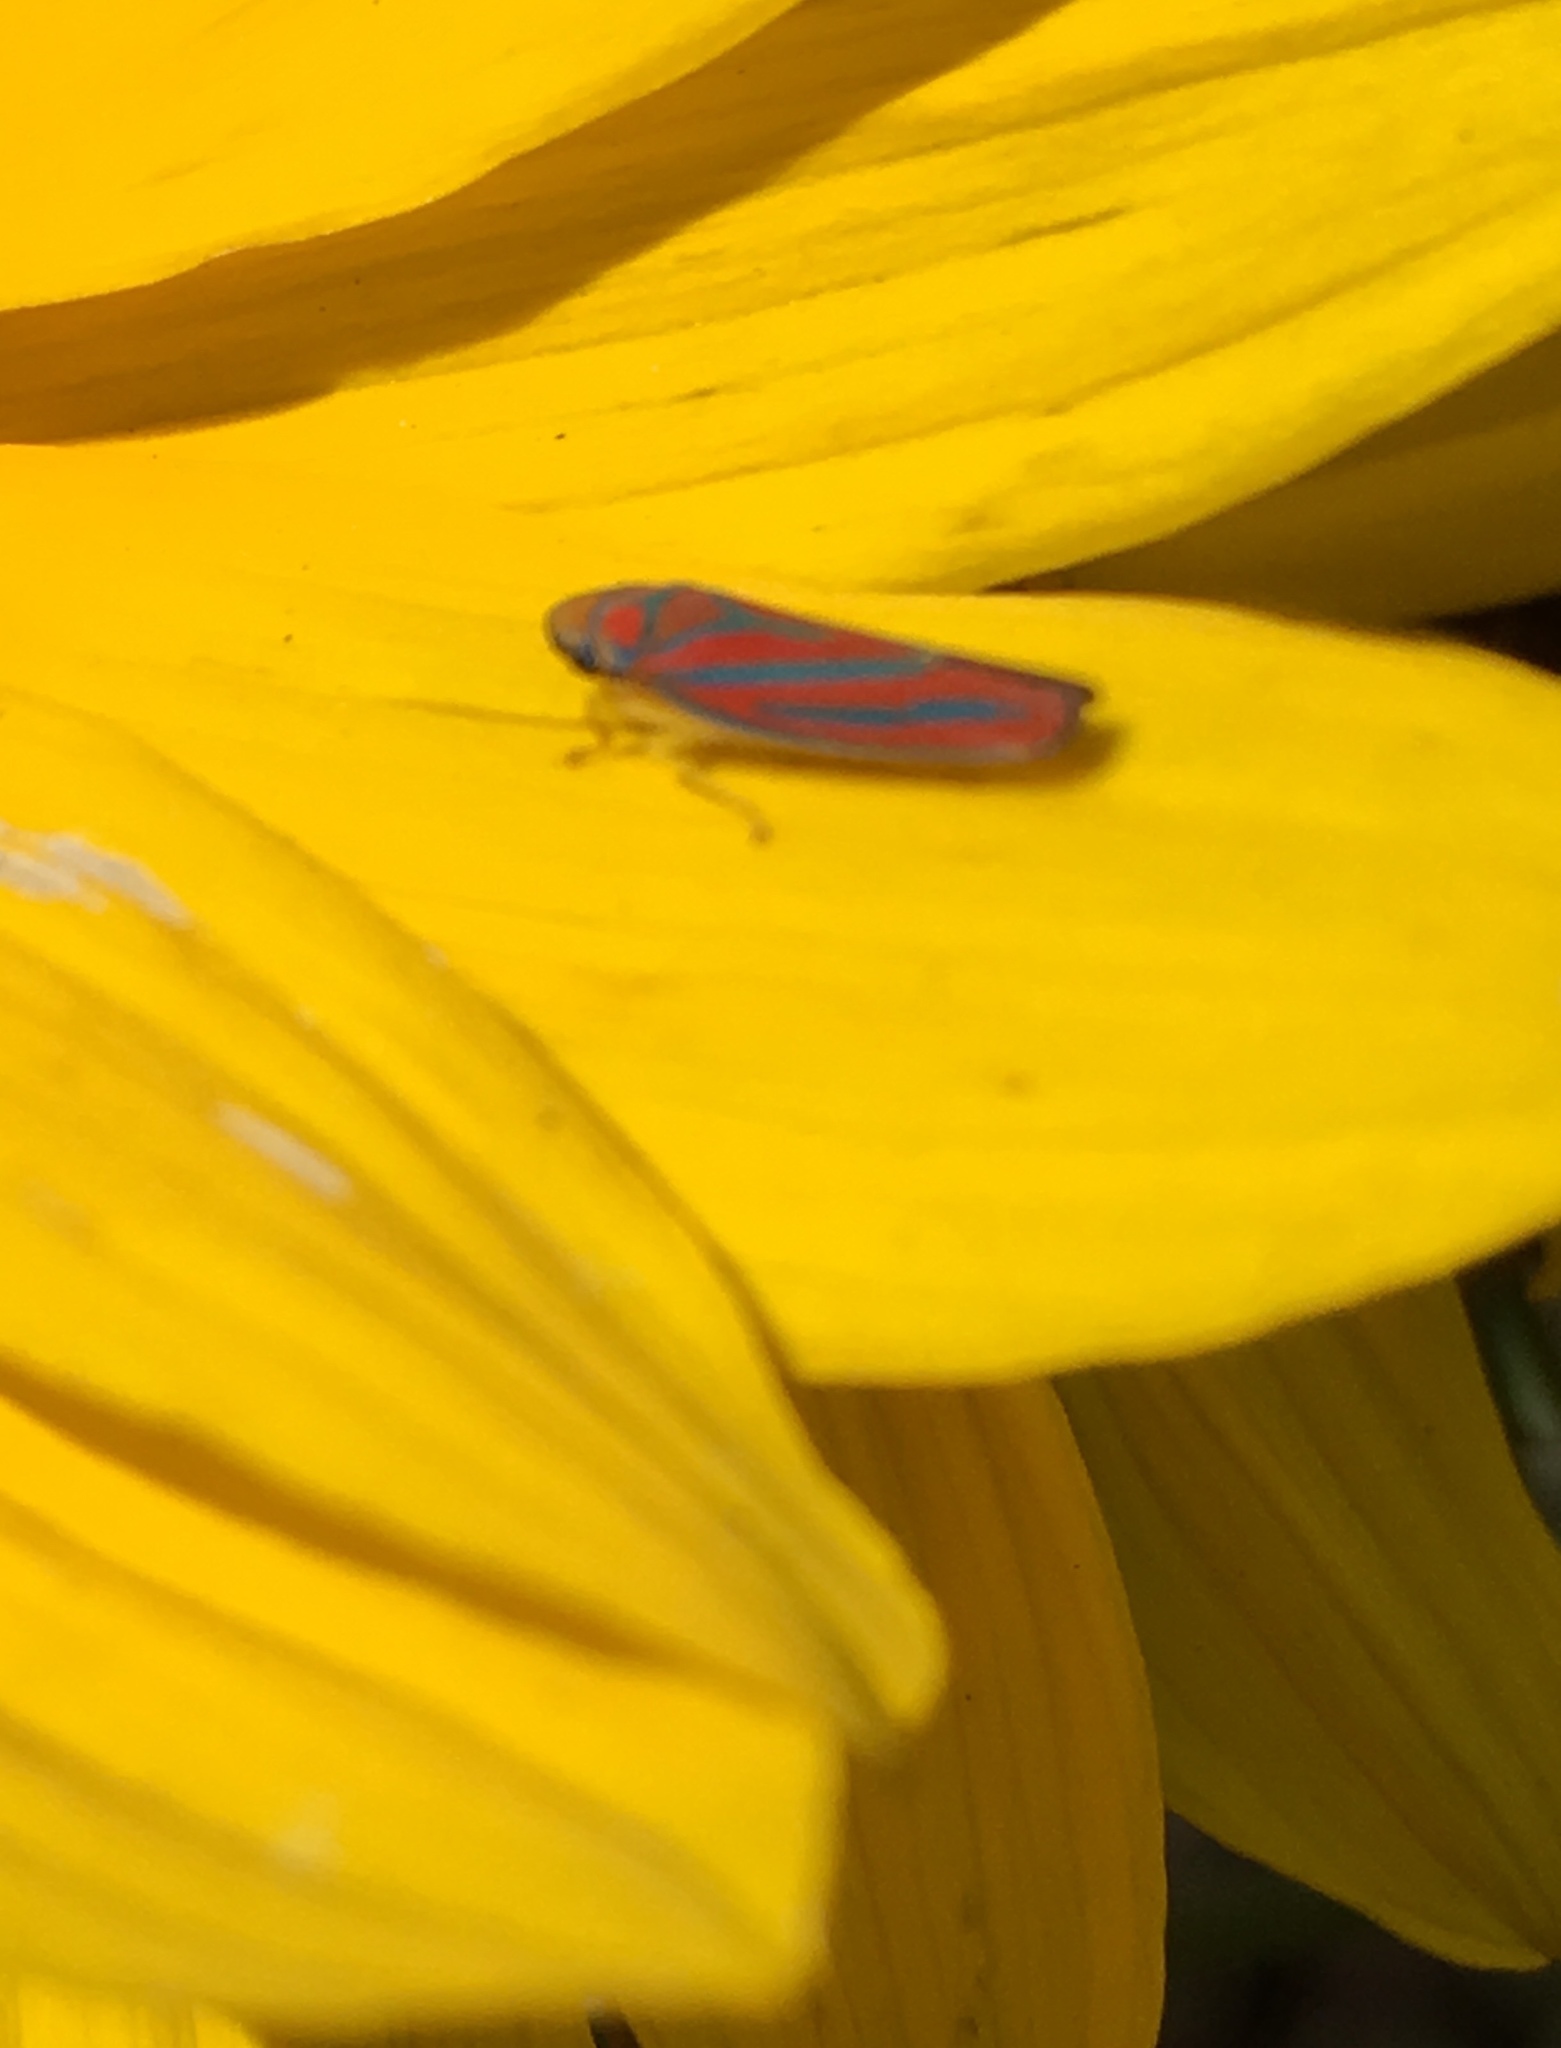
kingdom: Animalia
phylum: Arthropoda
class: Insecta
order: Hemiptera
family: Cicadellidae
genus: Graphocephala
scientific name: Graphocephala coccinea
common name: Candy-striped leafhopper
